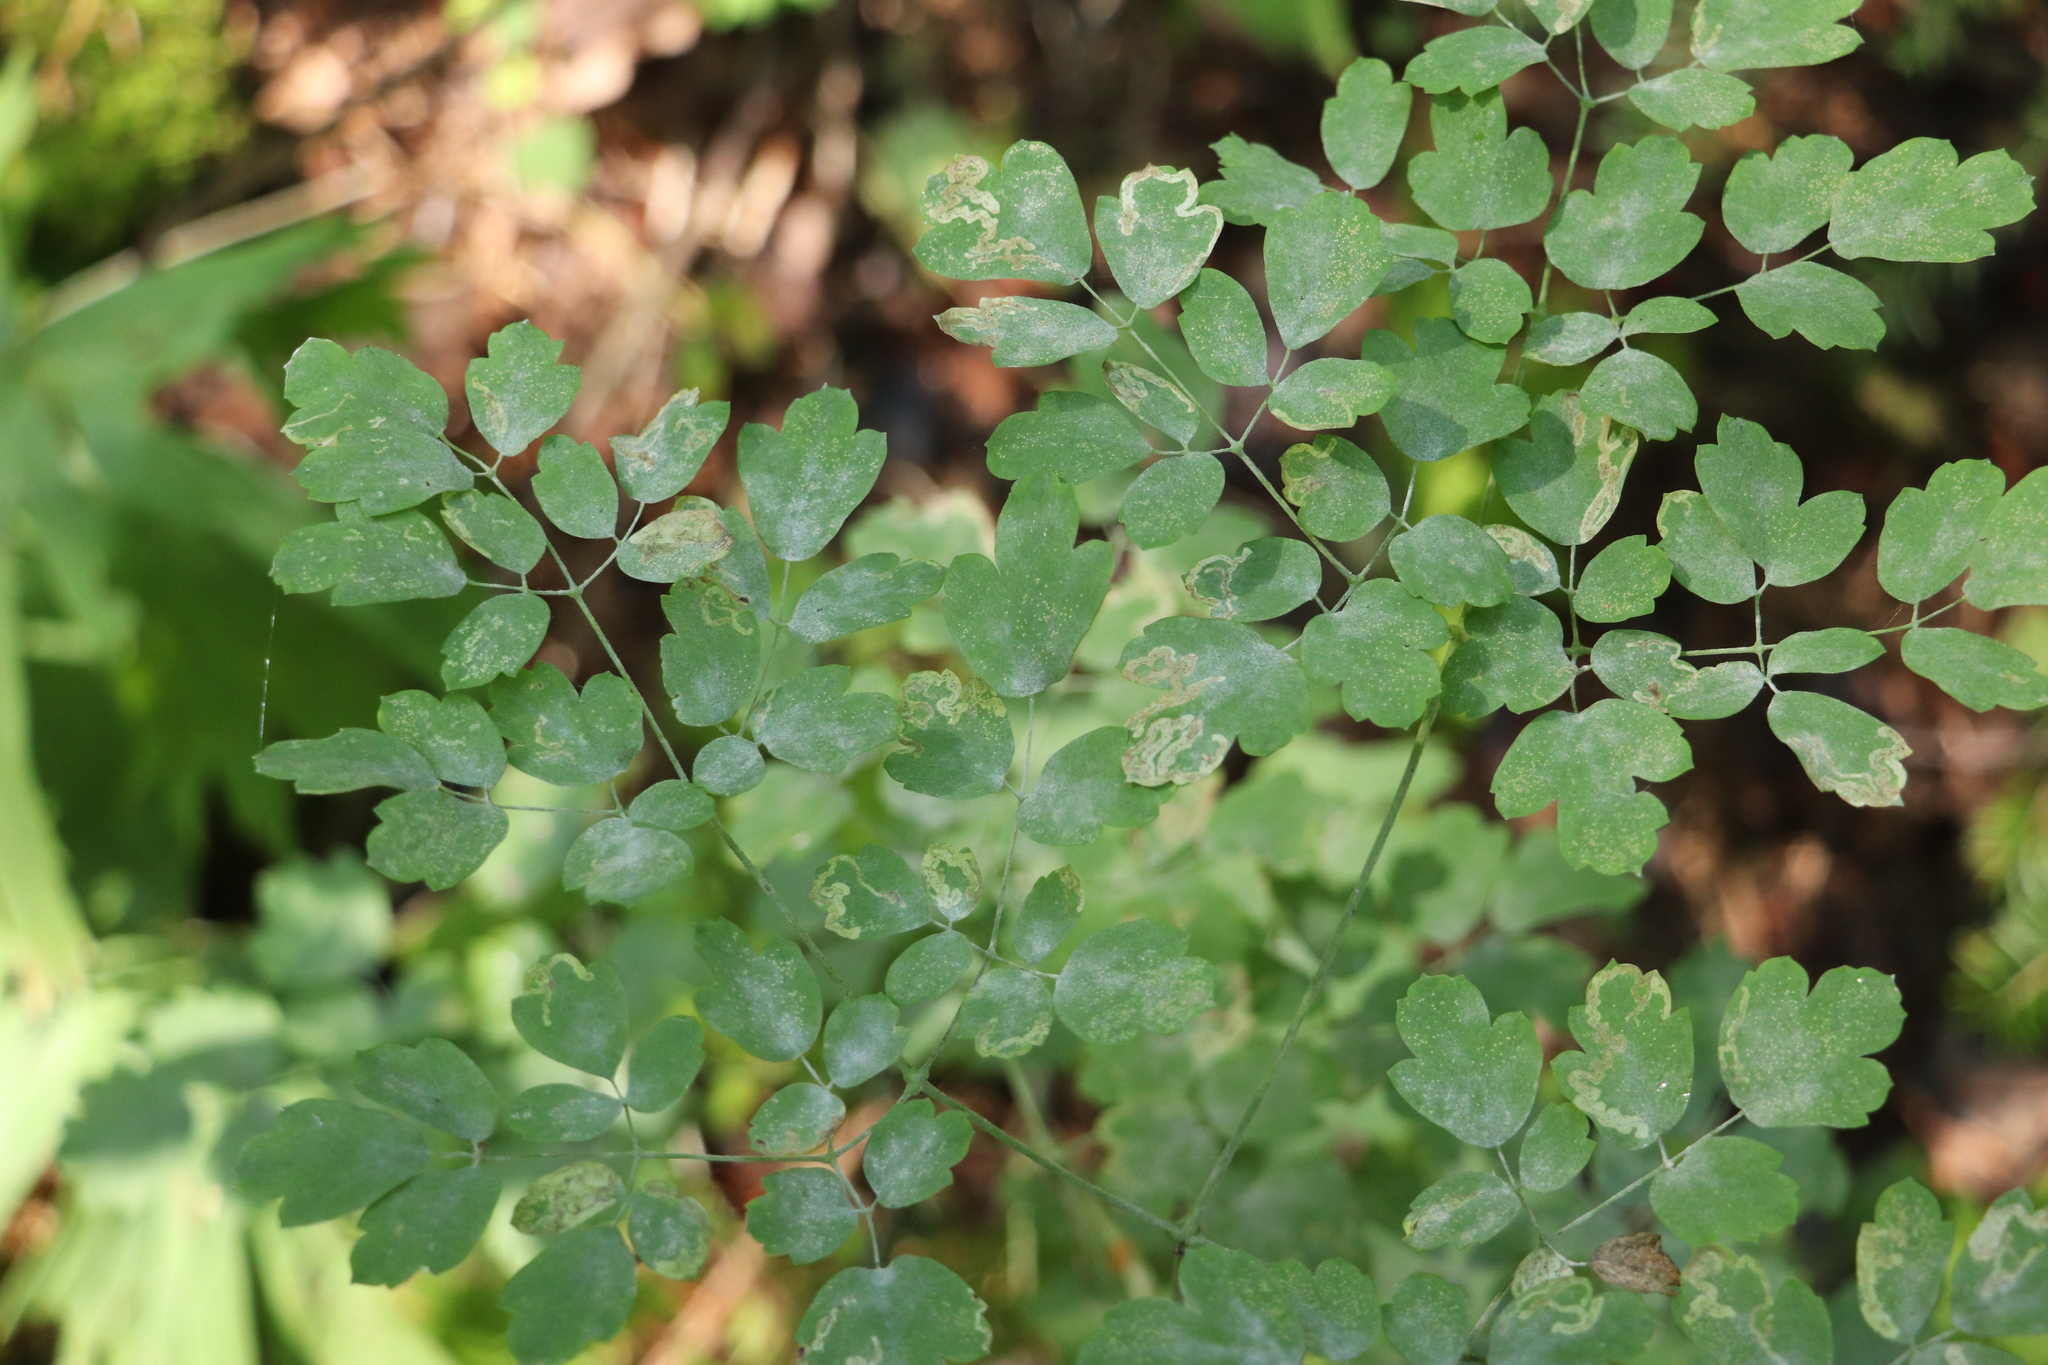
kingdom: Plantae
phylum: Tracheophyta
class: Magnoliopsida
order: Ranunculales
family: Ranunculaceae
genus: Thalictrum
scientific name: Thalictrum minus
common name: Lesser meadow-rue
